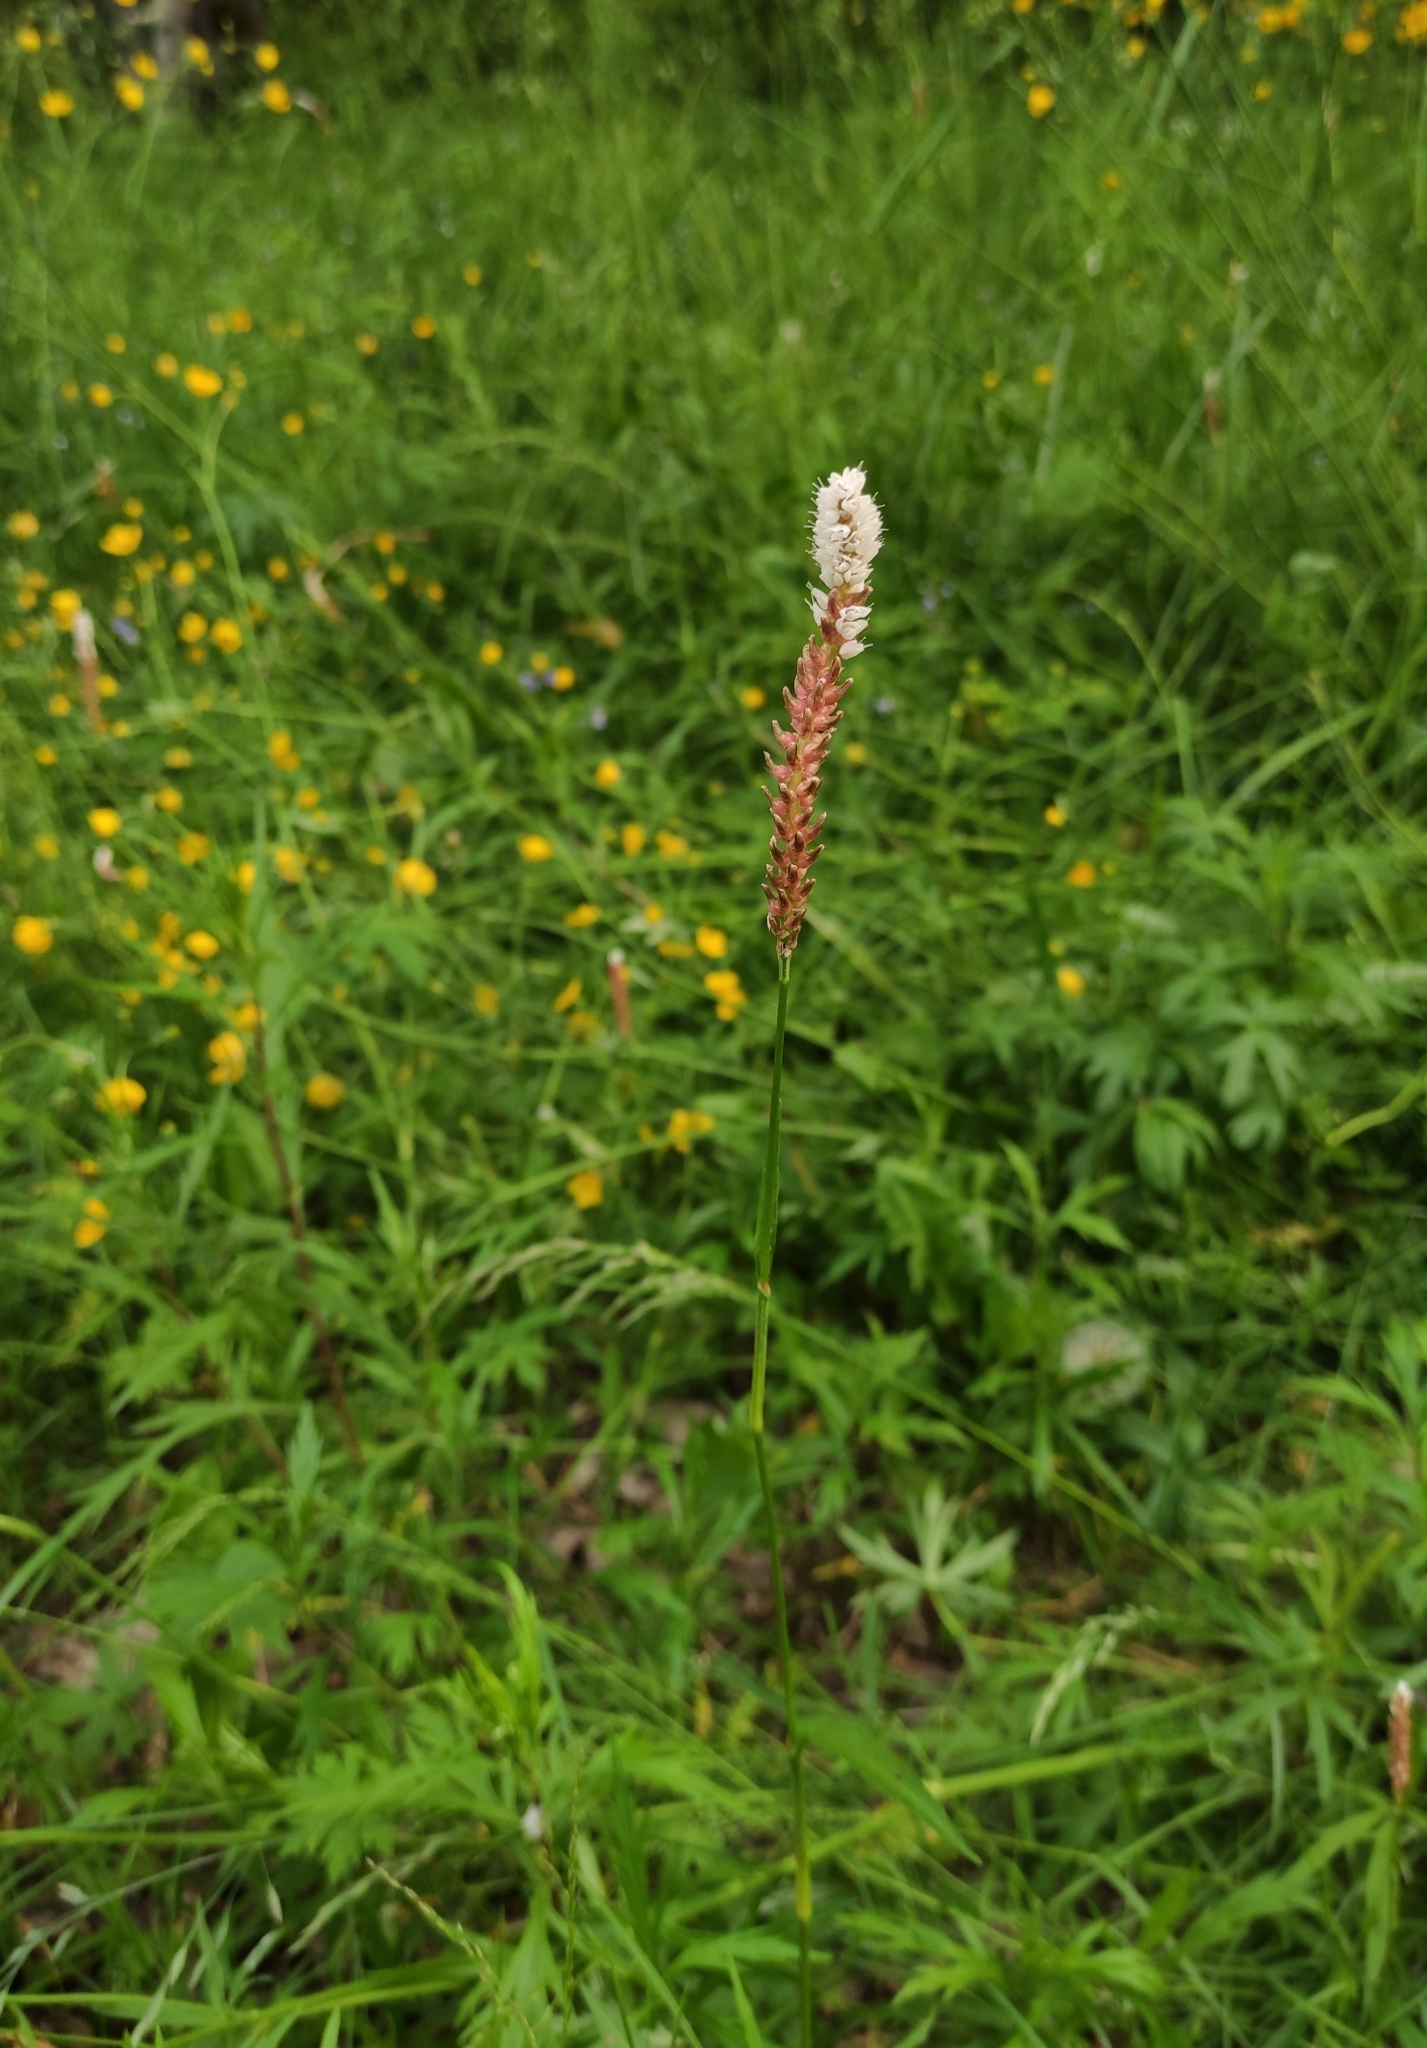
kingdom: Plantae
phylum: Tracheophyta
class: Magnoliopsida
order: Caryophyllales
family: Polygonaceae
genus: Bistorta
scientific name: Bistorta vivipara
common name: Alpine bistort
